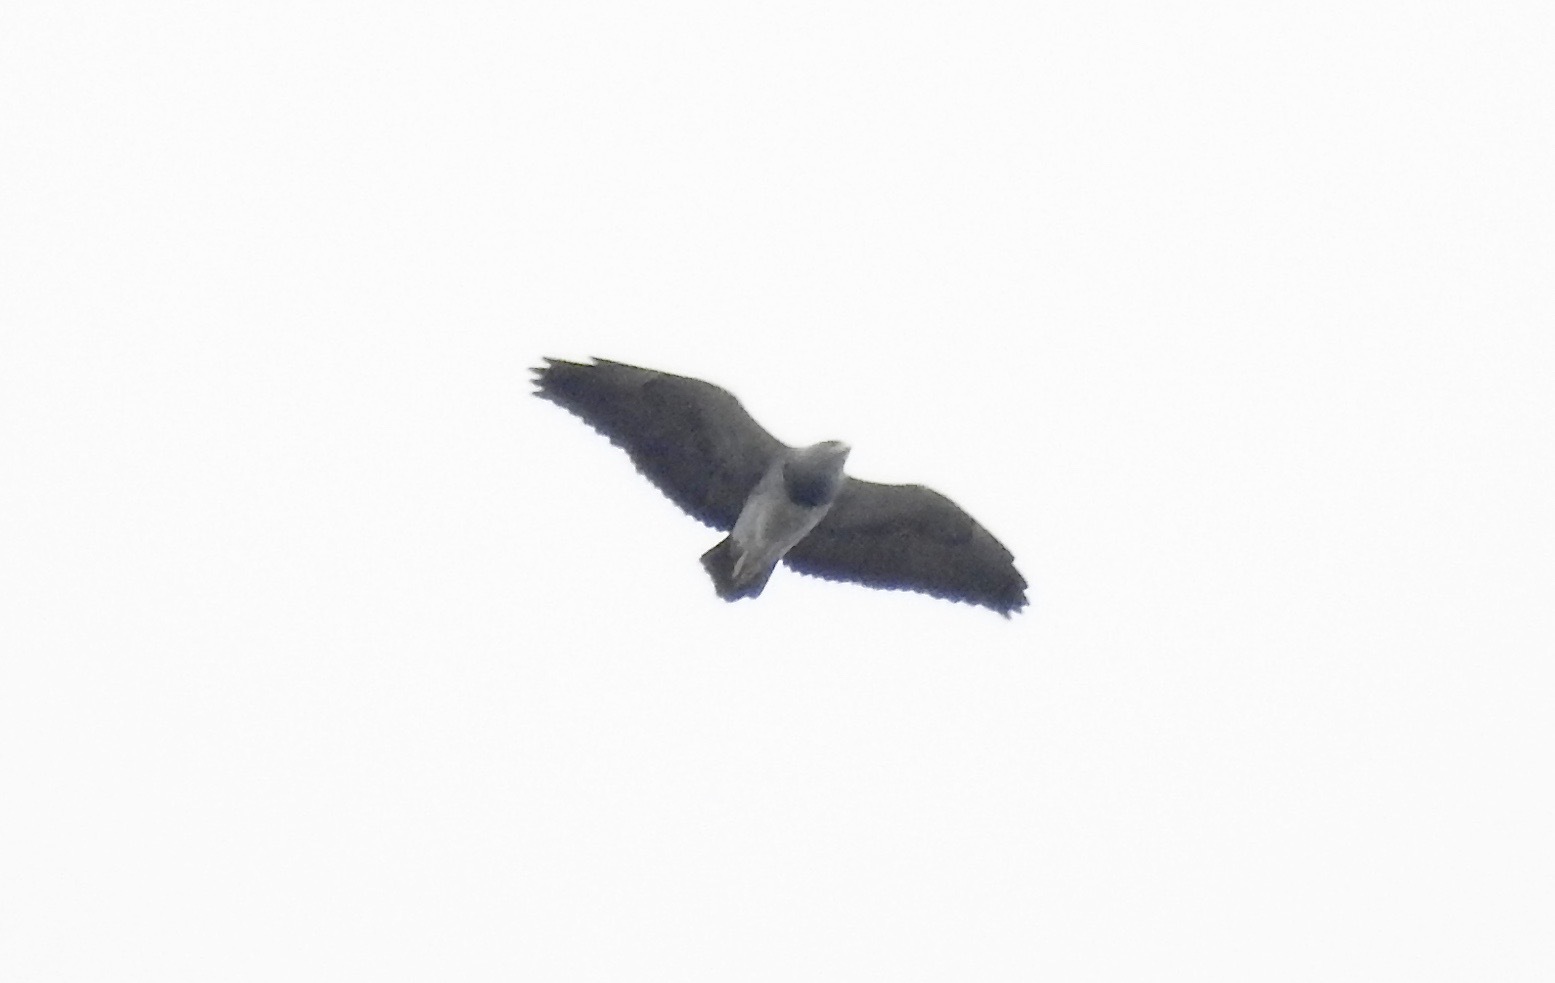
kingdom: Animalia
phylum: Chordata
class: Aves
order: Accipitriformes
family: Accipitridae
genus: Geranoaetus
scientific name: Geranoaetus melanoleucus
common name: Black-chested buzzard-eagle
